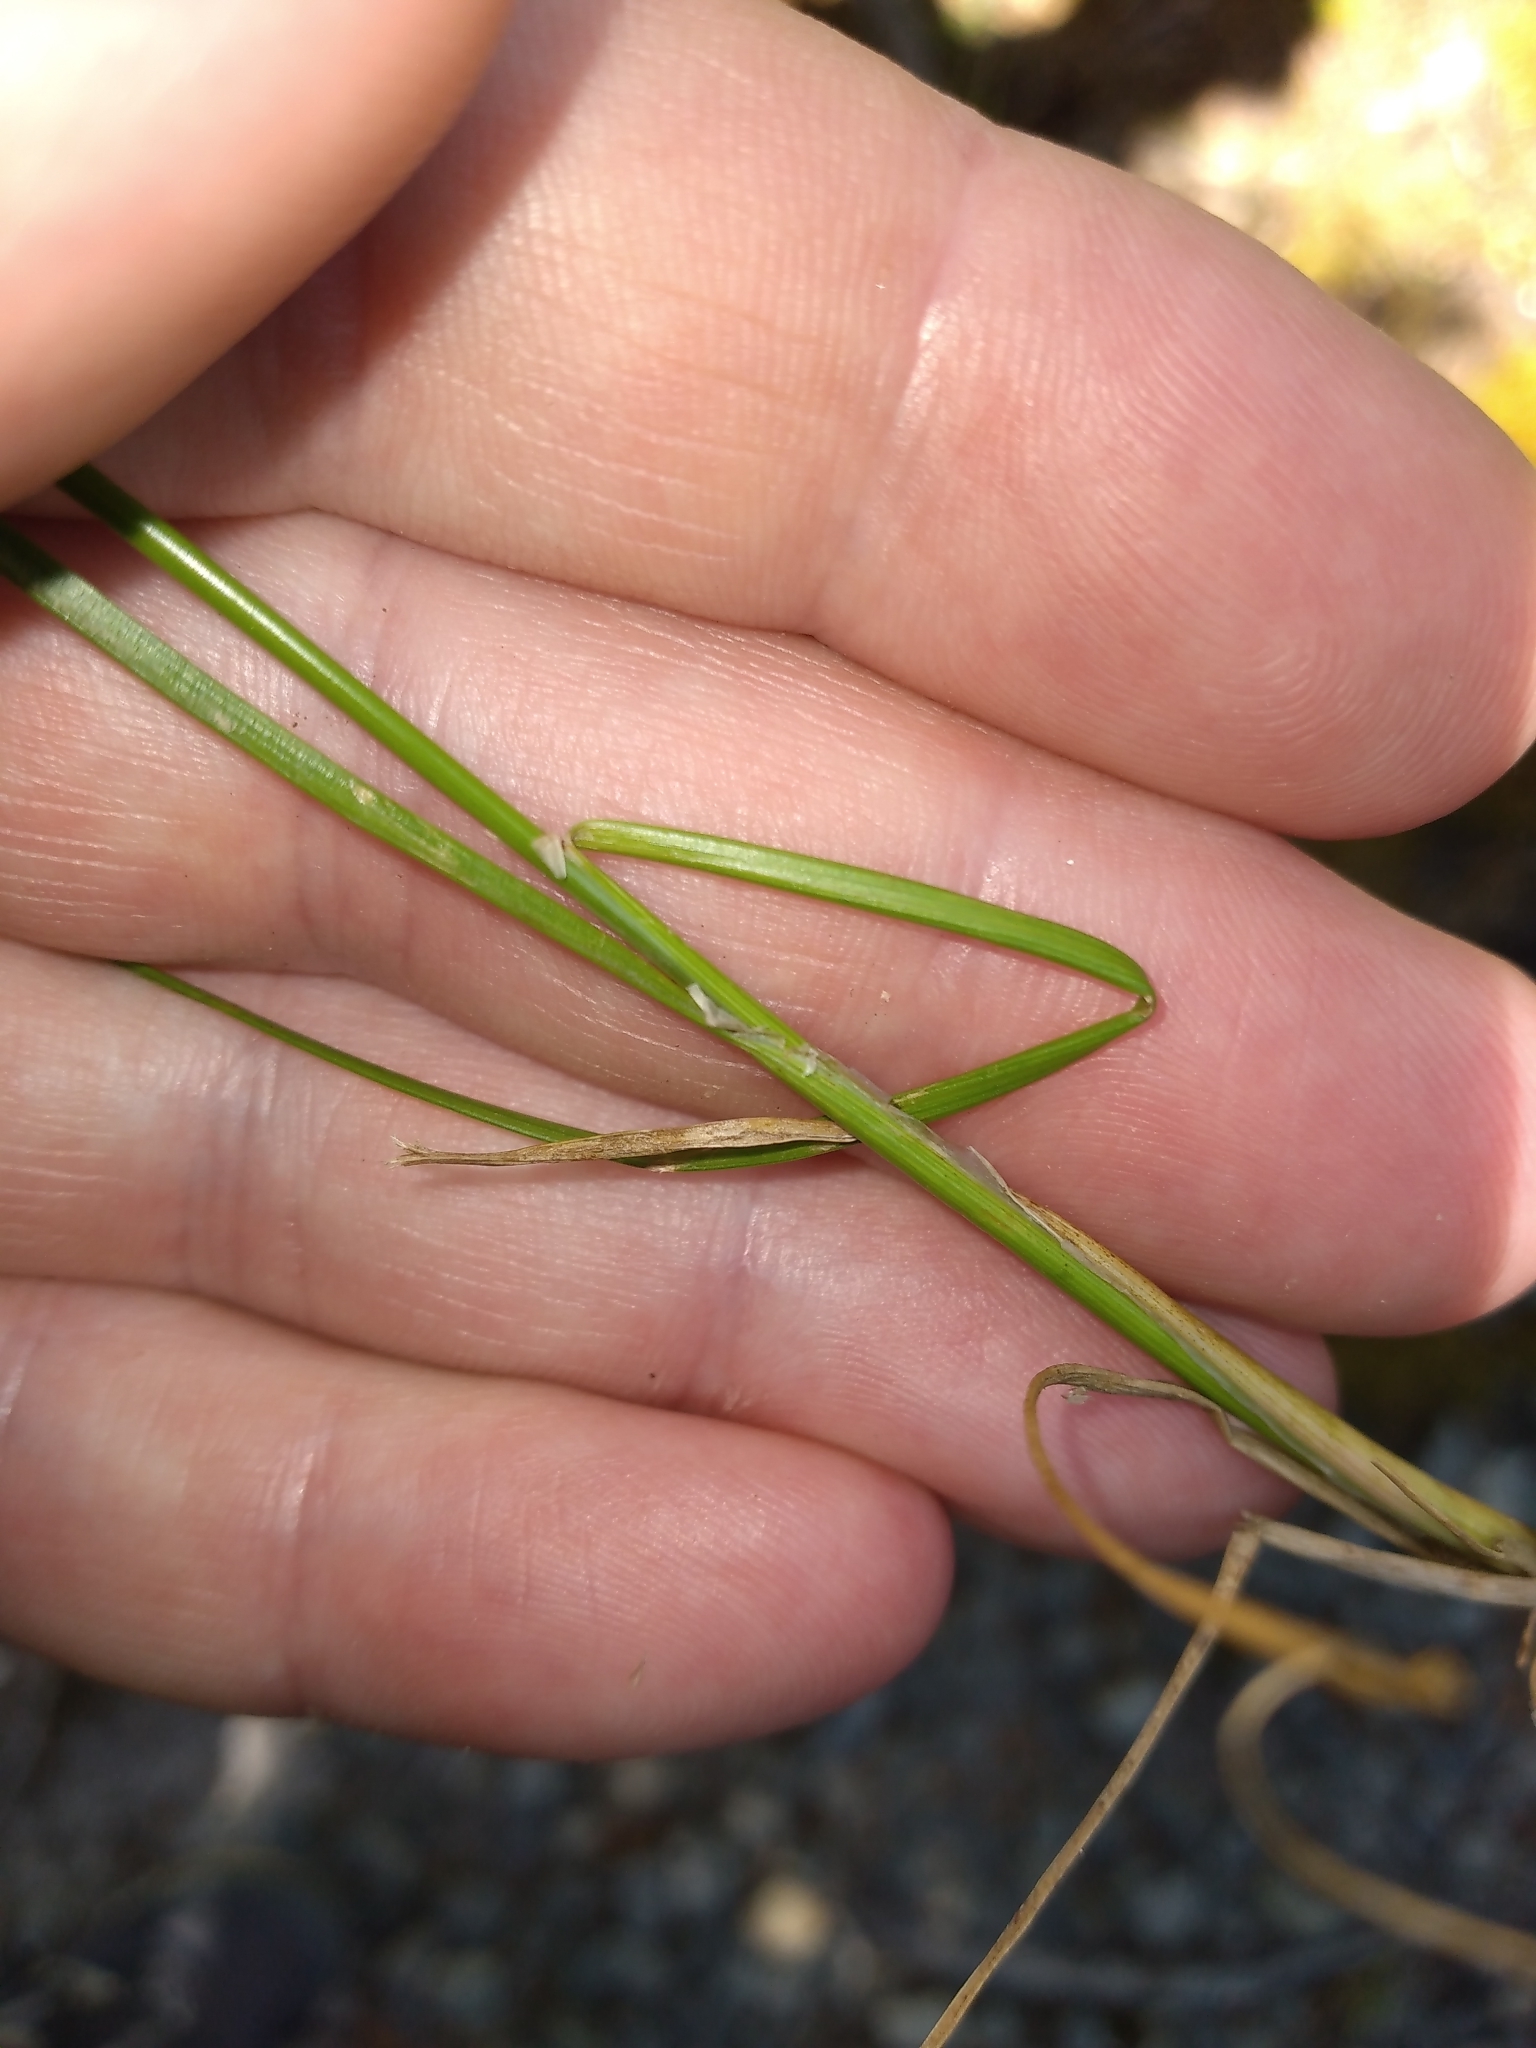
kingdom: Plantae
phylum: Tracheophyta
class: Liliopsida
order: Poales
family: Juncaceae
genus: Juncus
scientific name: Juncus tenuis
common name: Slender rush
